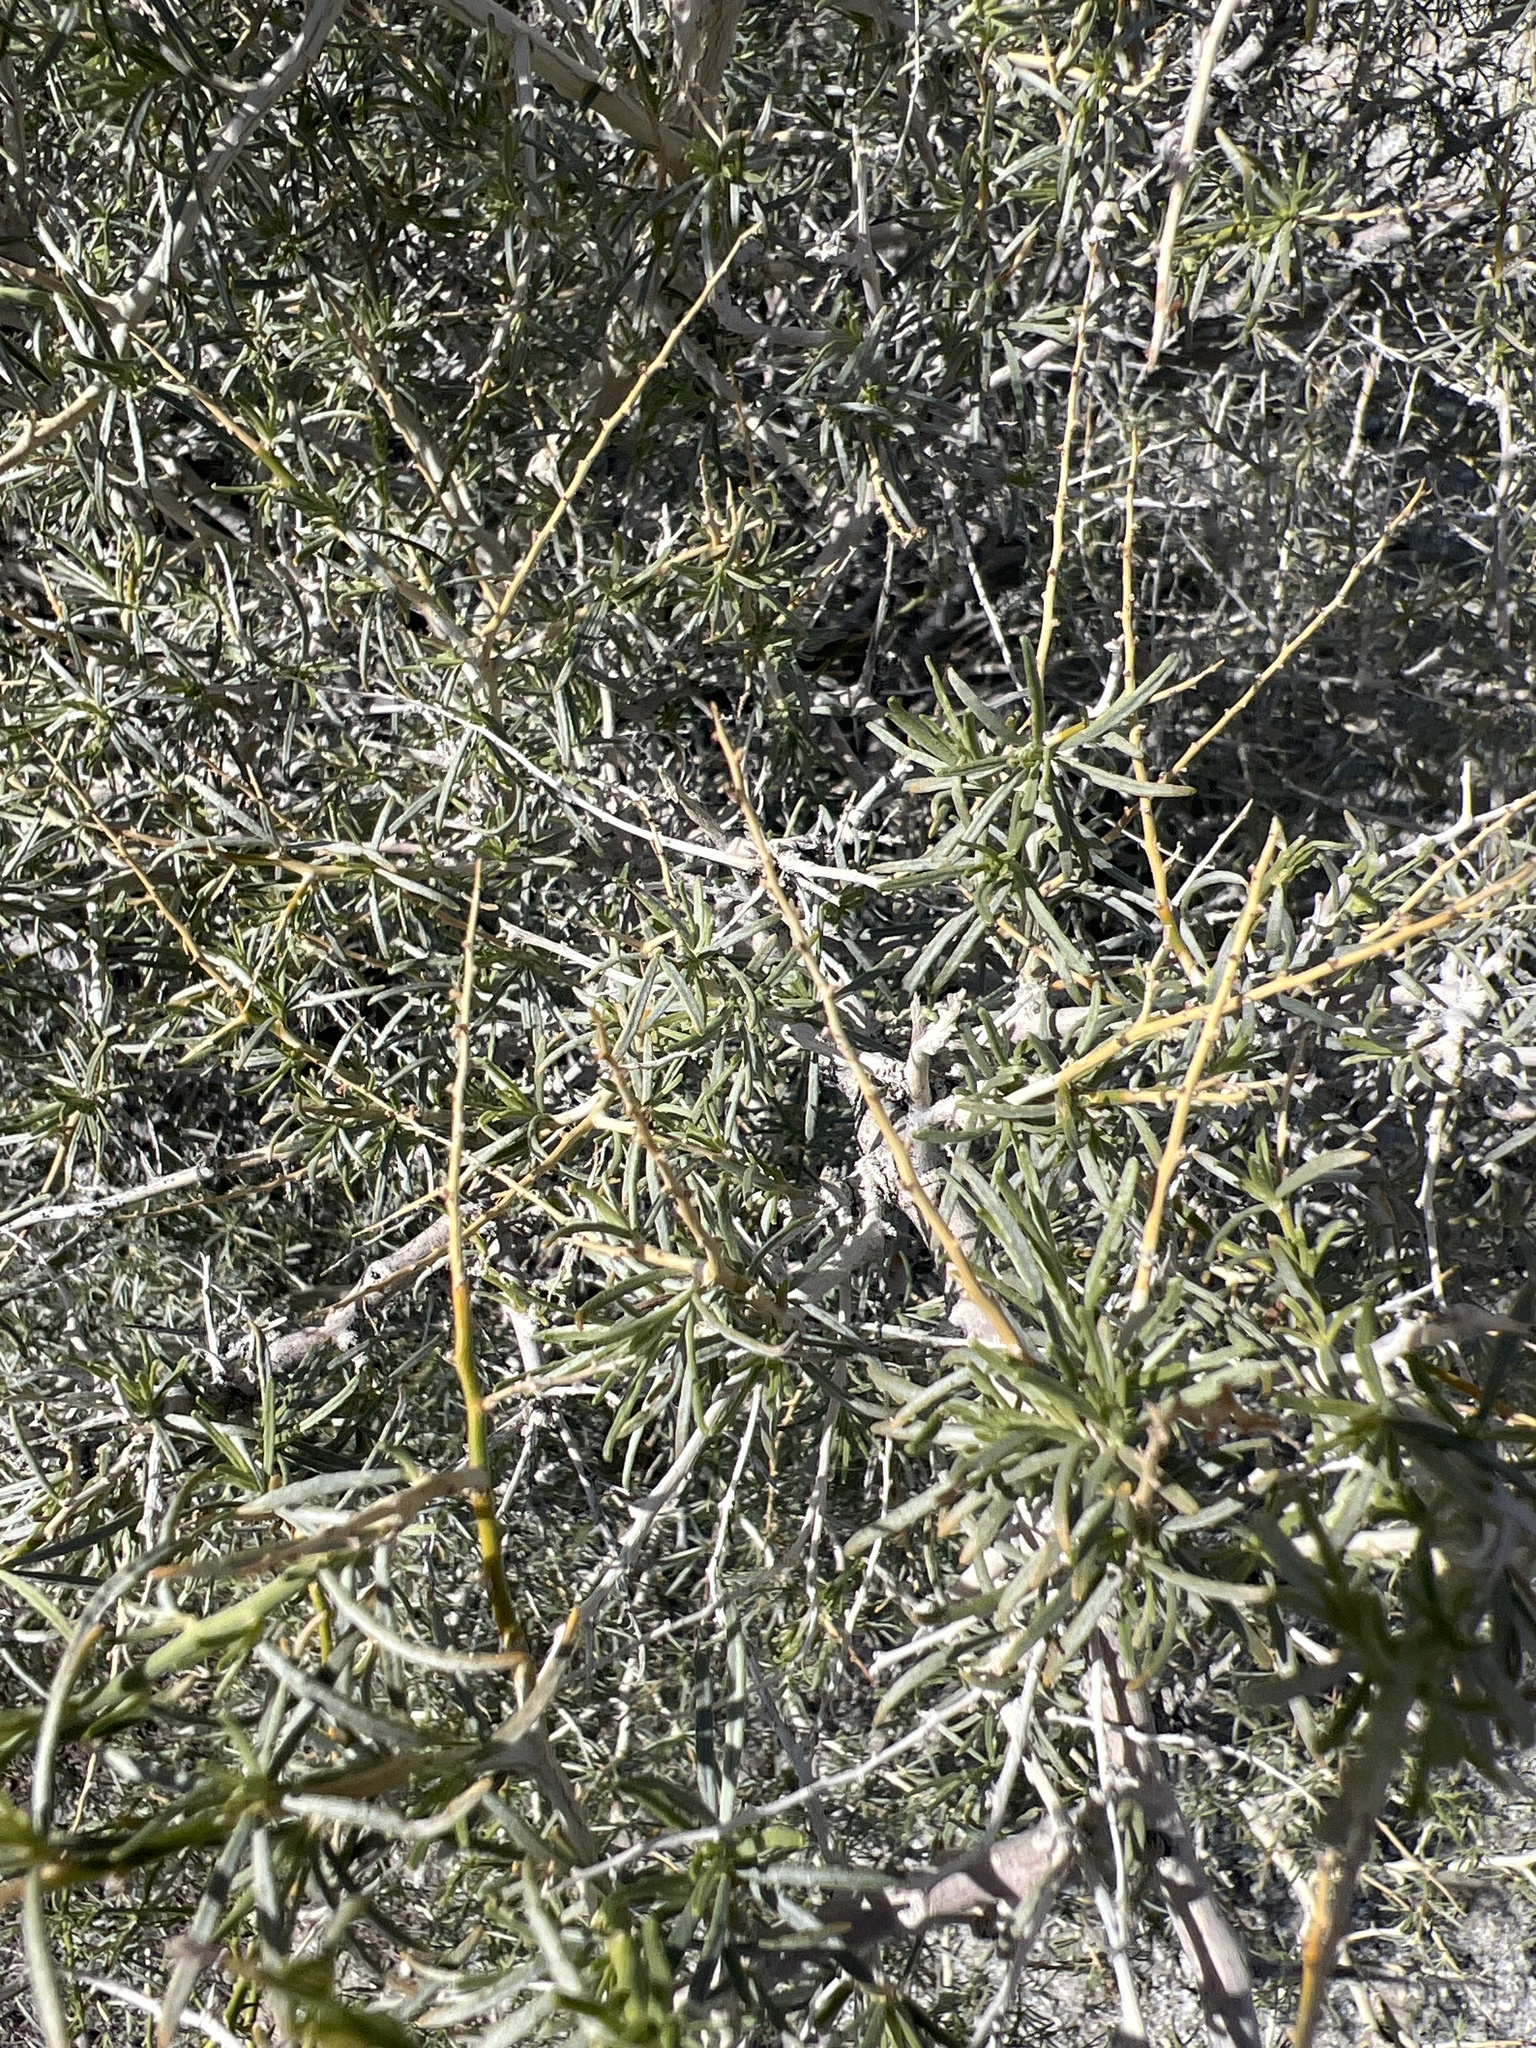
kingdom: Plantae
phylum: Tracheophyta
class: Magnoliopsida
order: Fabales
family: Fabaceae
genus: Psorothamnus
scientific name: Psorothamnus schottii
